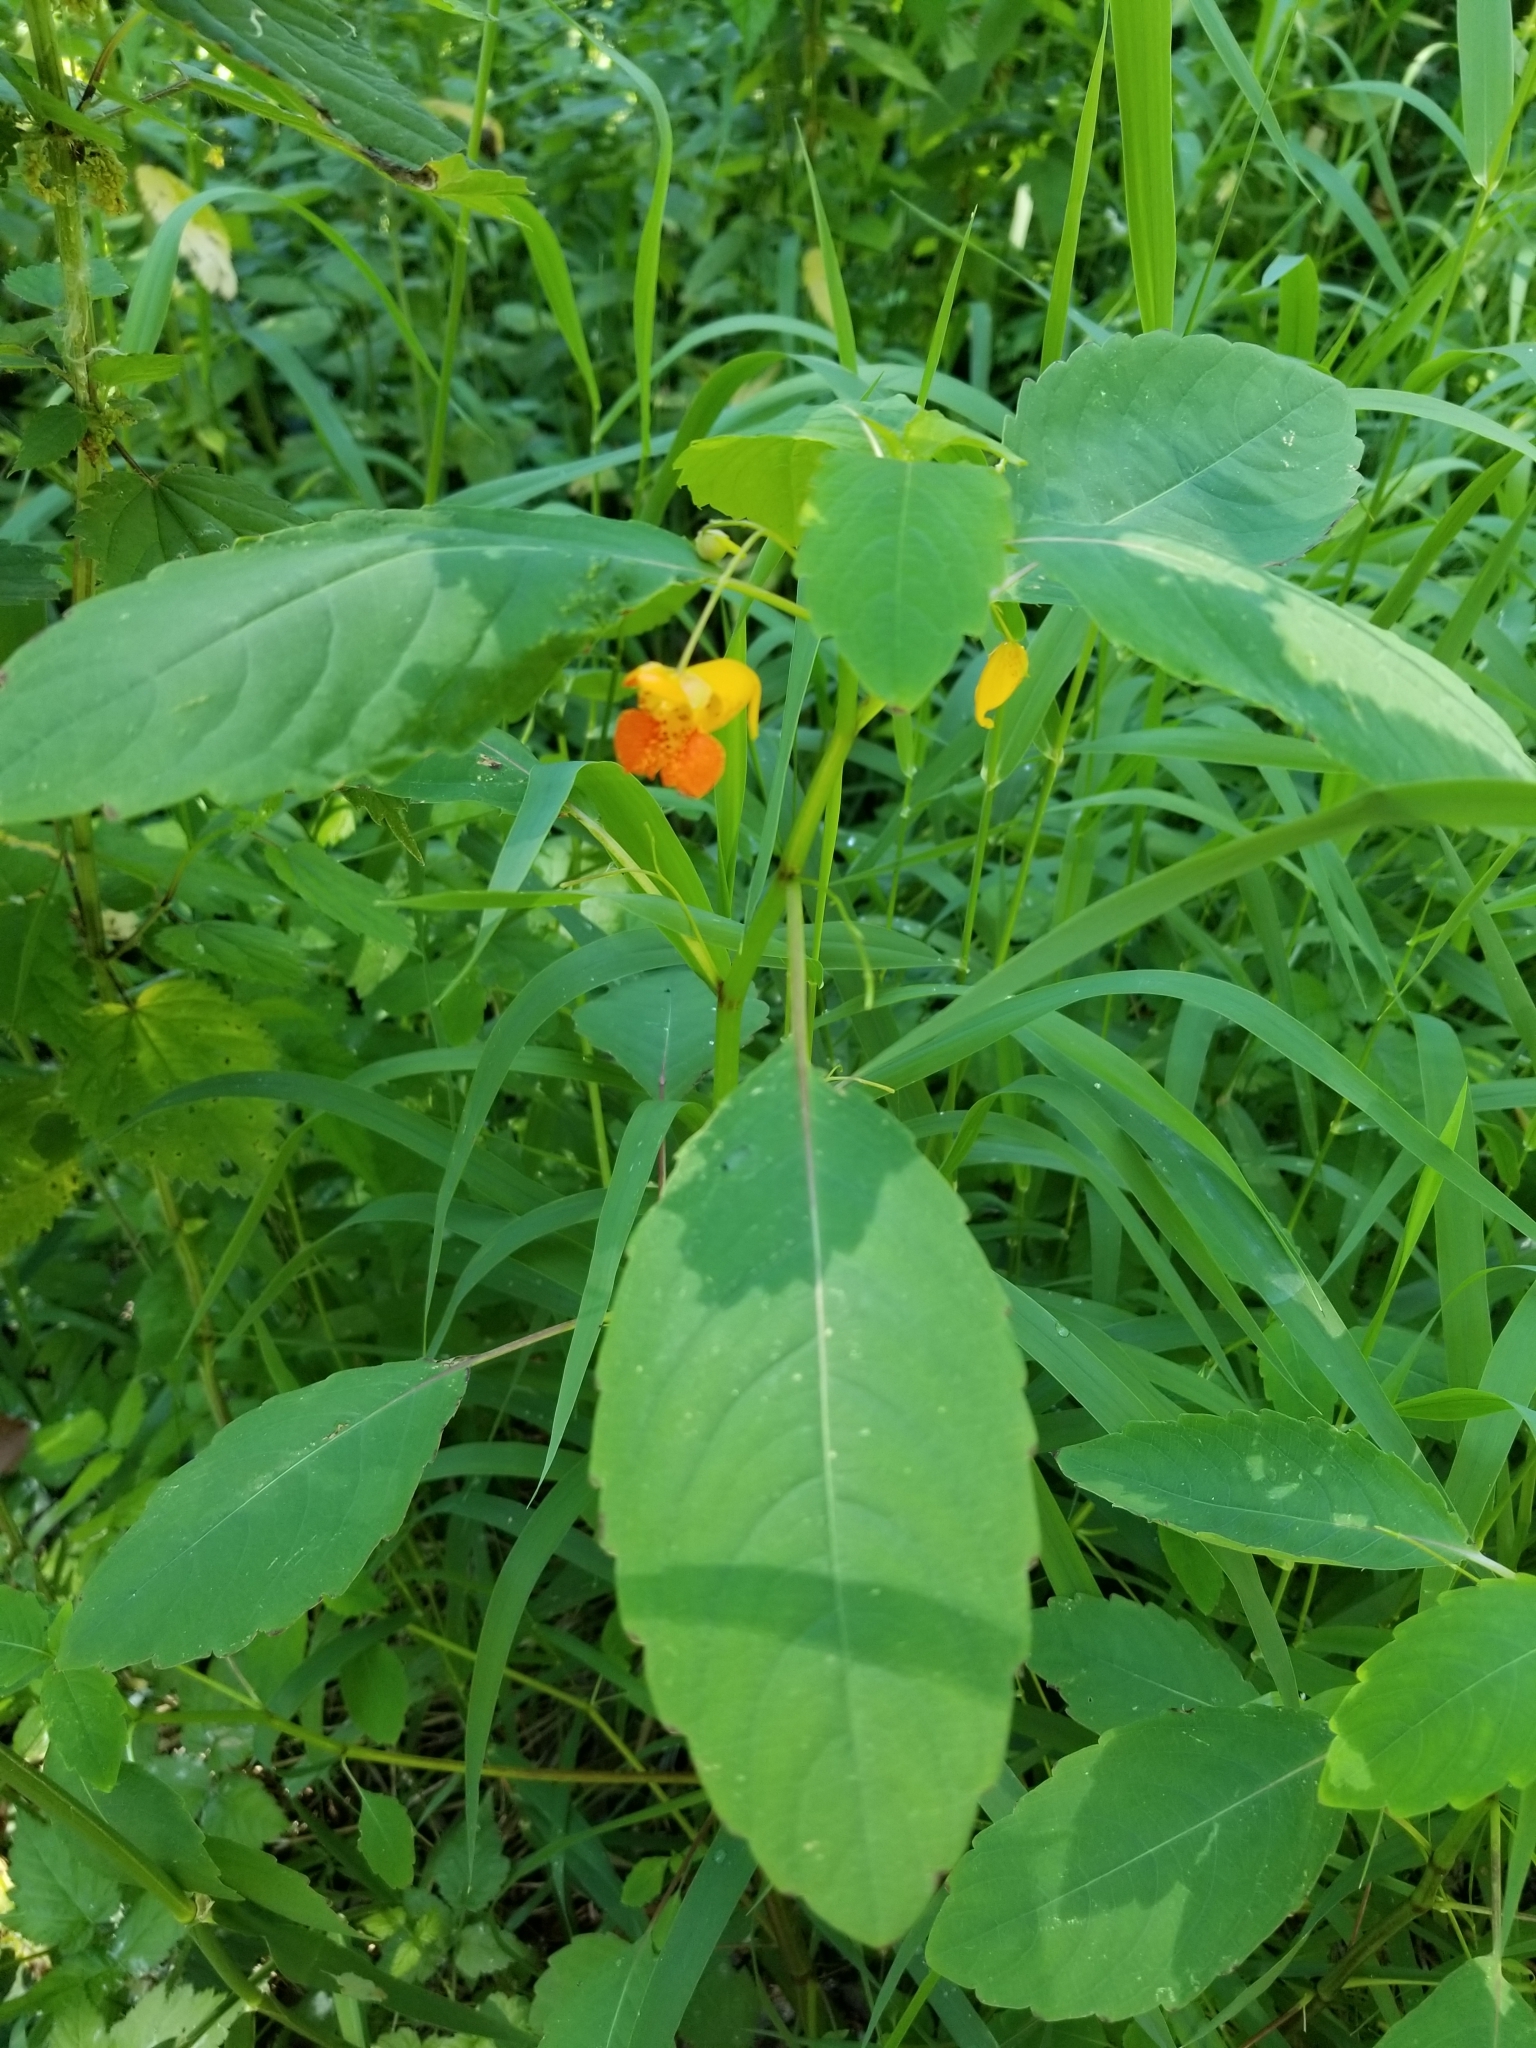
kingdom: Plantae
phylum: Tracheophyta
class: Magnoliopsida
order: Ericales
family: Balsaminaceae
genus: Impatiens
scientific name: Impatiens capensis
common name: Orange balsam
